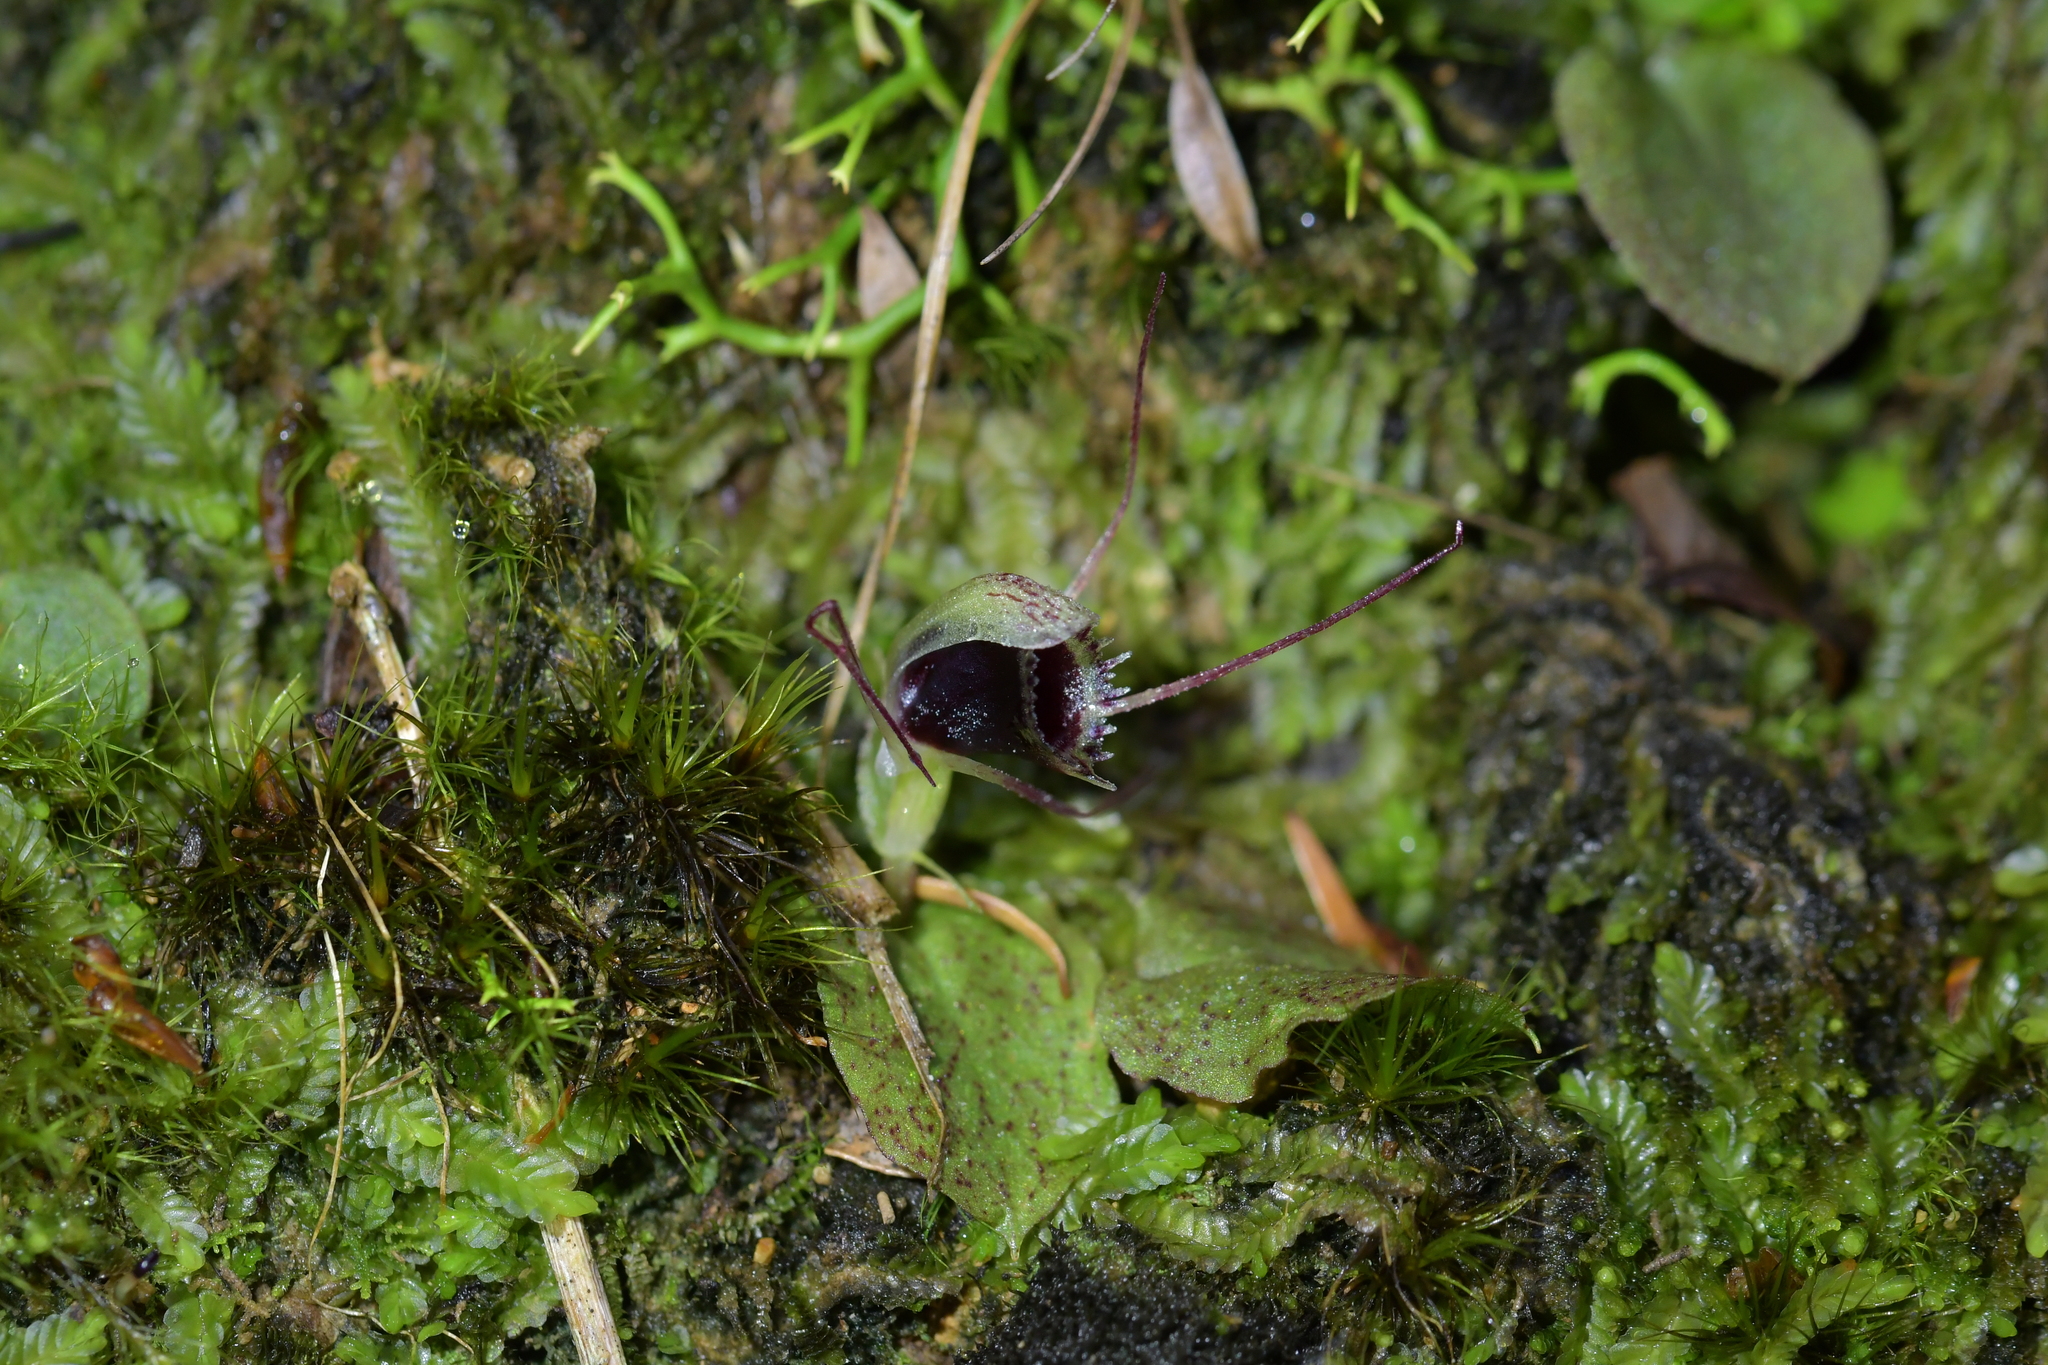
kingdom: Plantae
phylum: Tracheophyta
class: Liliopsida
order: Asparagales
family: Orchidaceae
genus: Corybas
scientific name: Corybas oblongus
